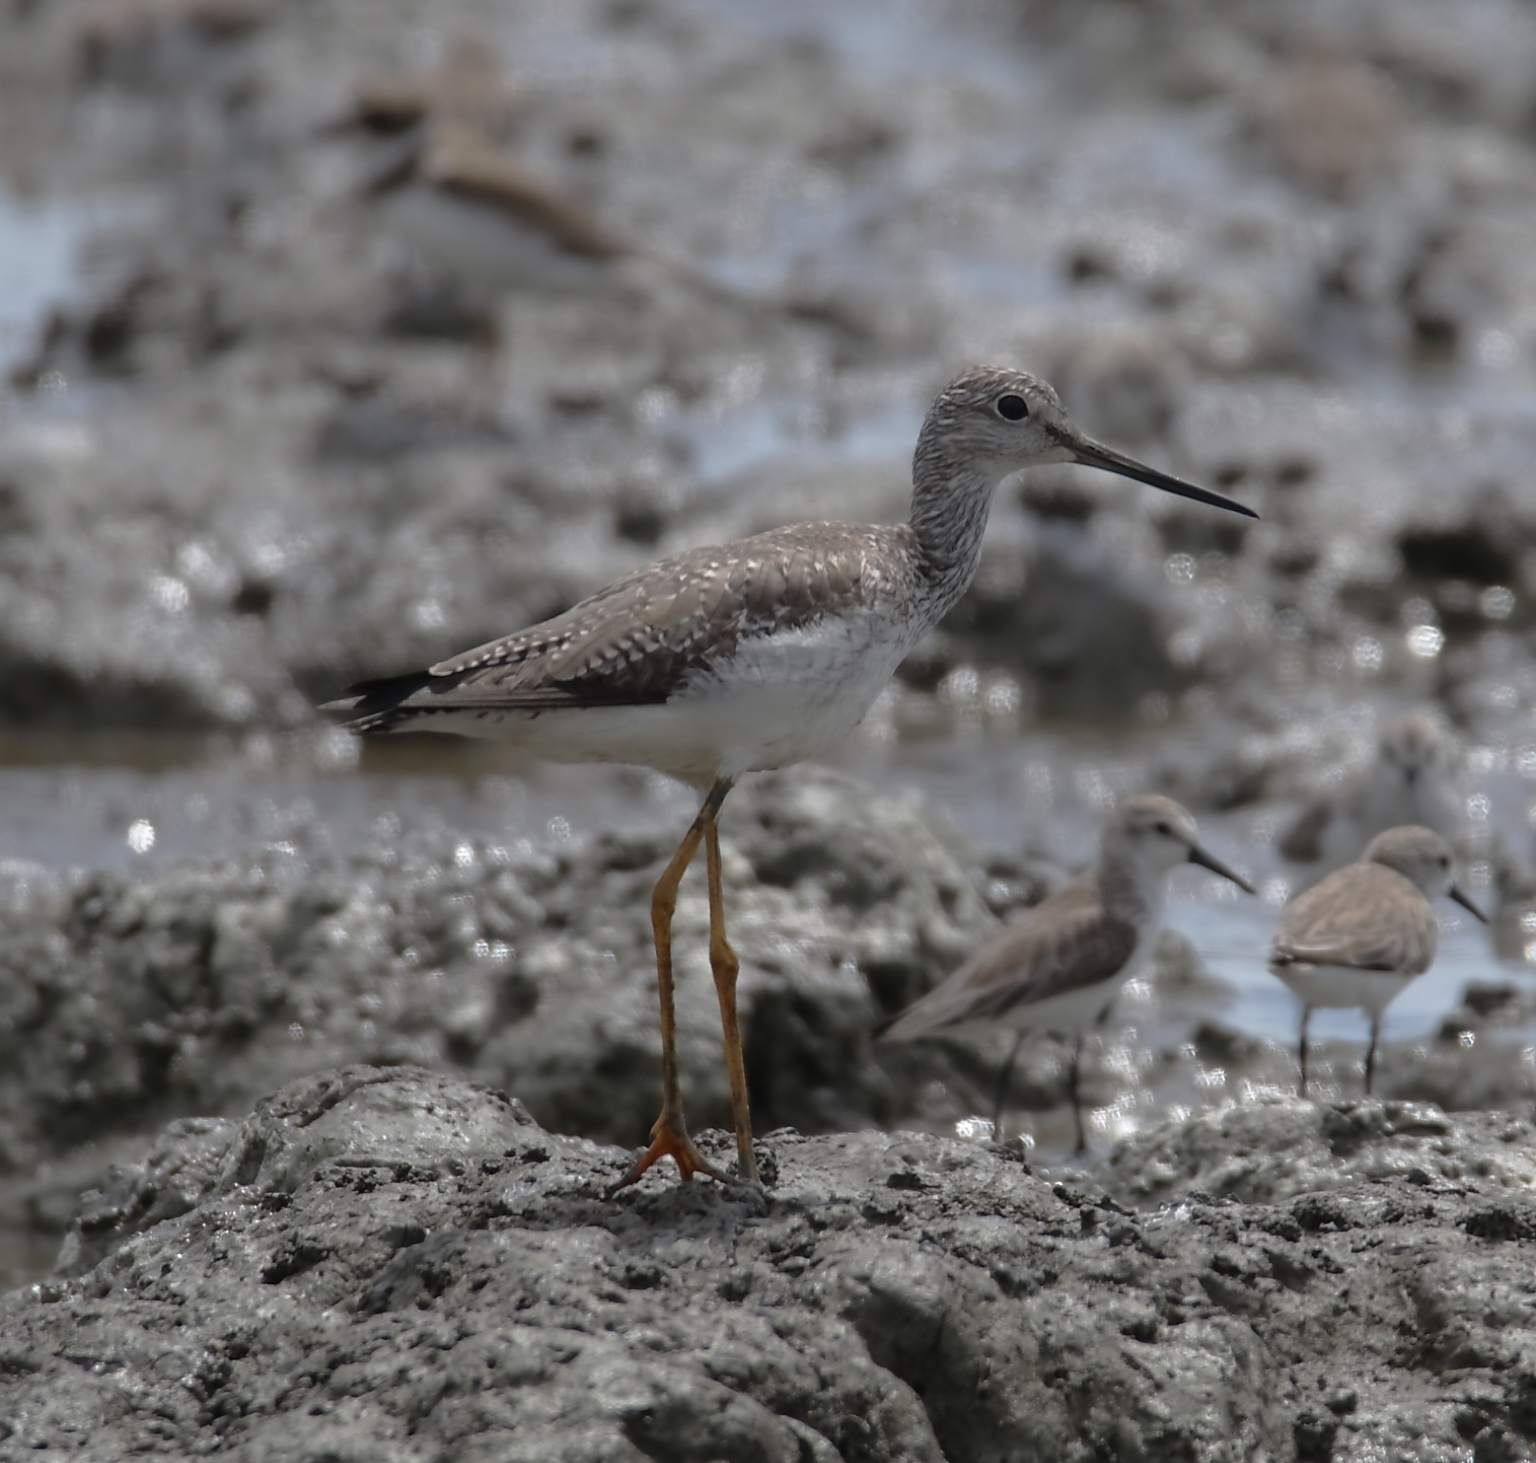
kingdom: Animalia
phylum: Chordata
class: Aves
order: Charadriiformes
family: Scolopacidae
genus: Tringa
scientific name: Tringa melanoleuca
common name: Greater yellowlegs
